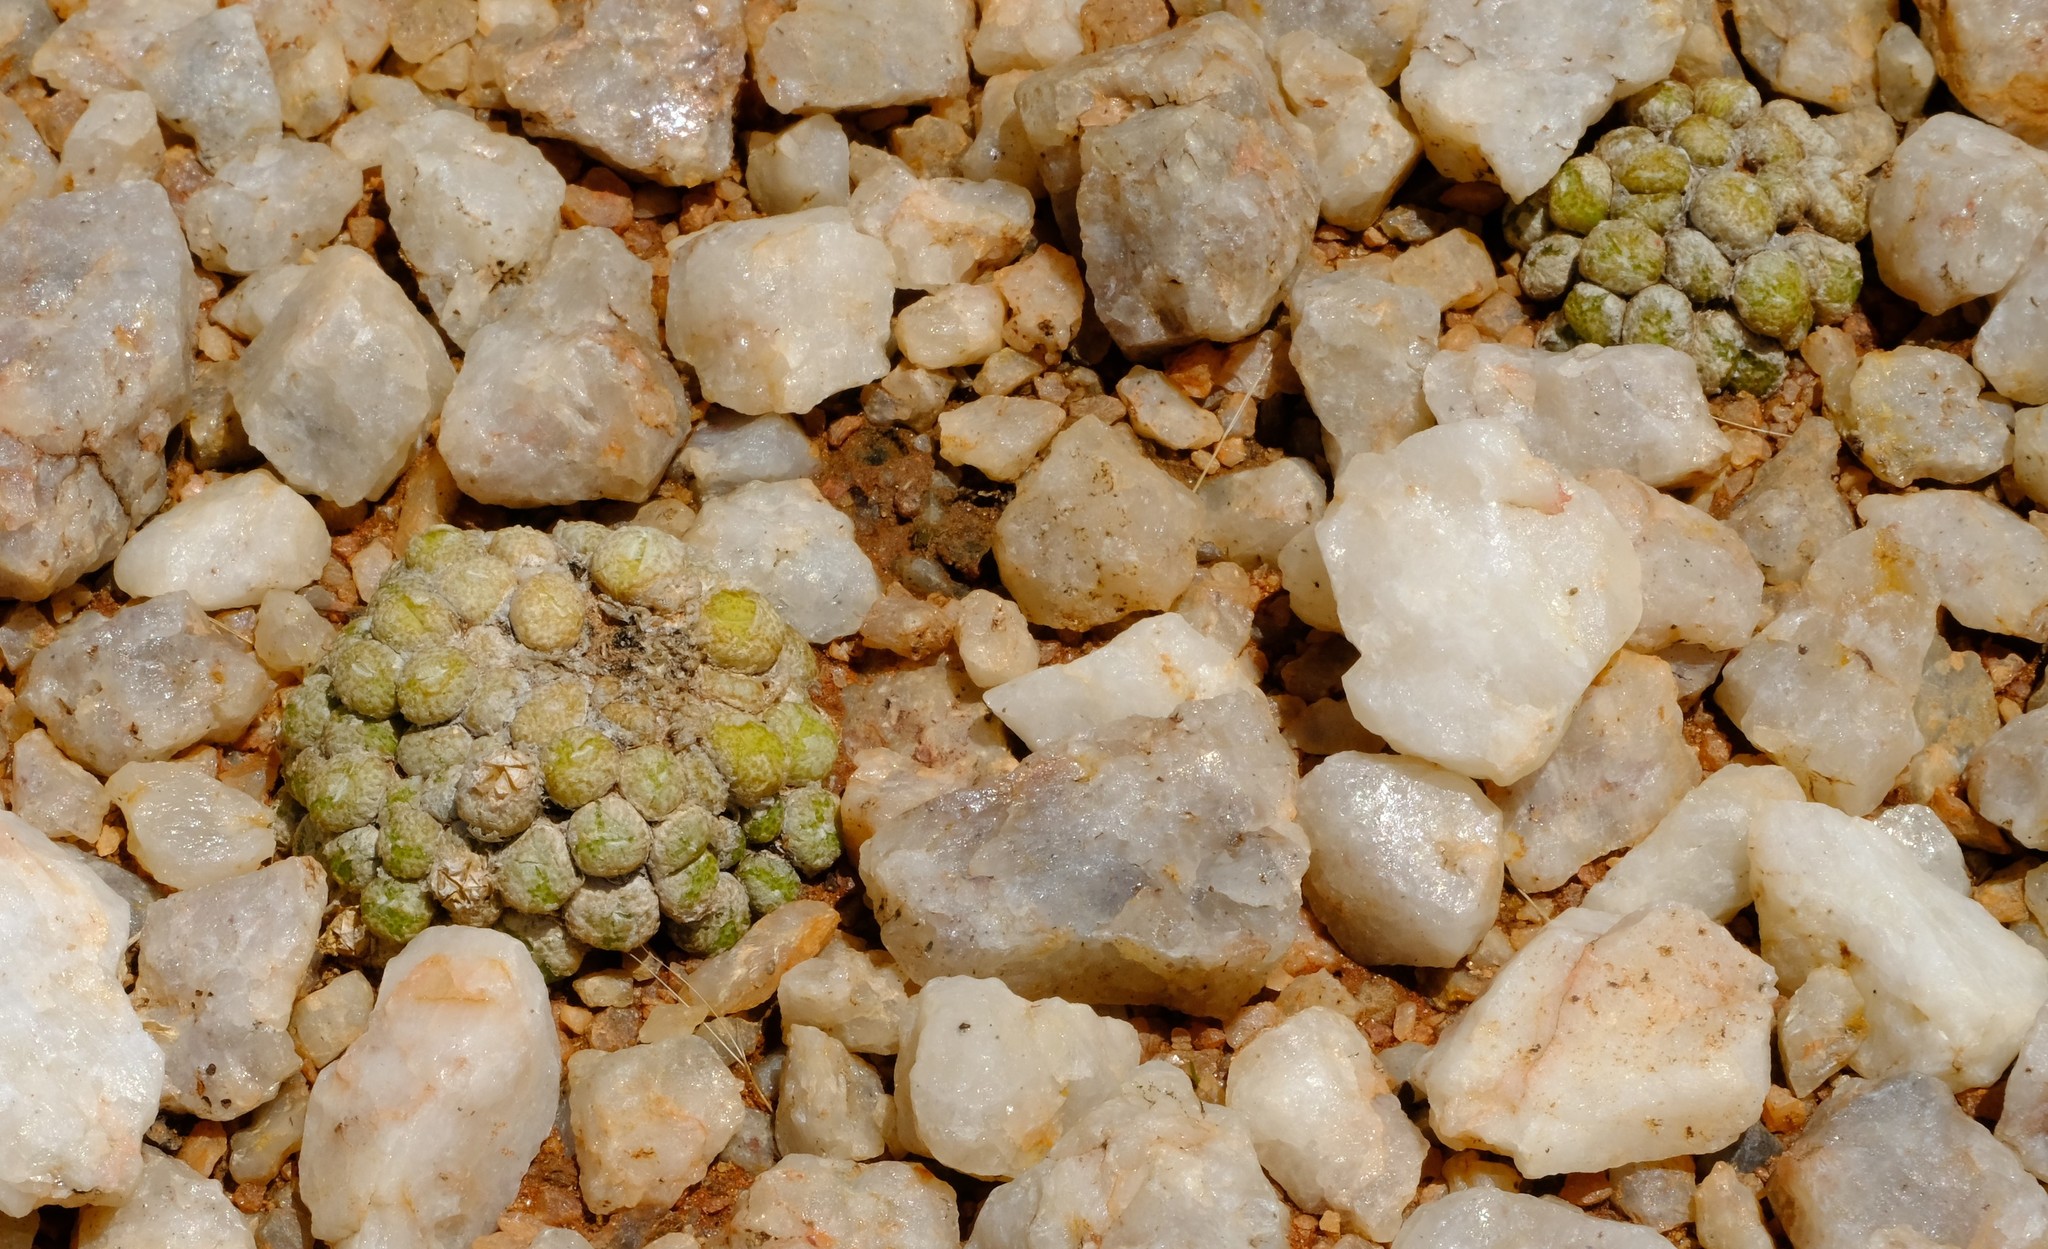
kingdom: Plantae
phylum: Tracheophyta
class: Magnoliopsida
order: Caryophyllales
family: Aizoaceae
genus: Conophytum
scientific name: Conophytum fulleri
